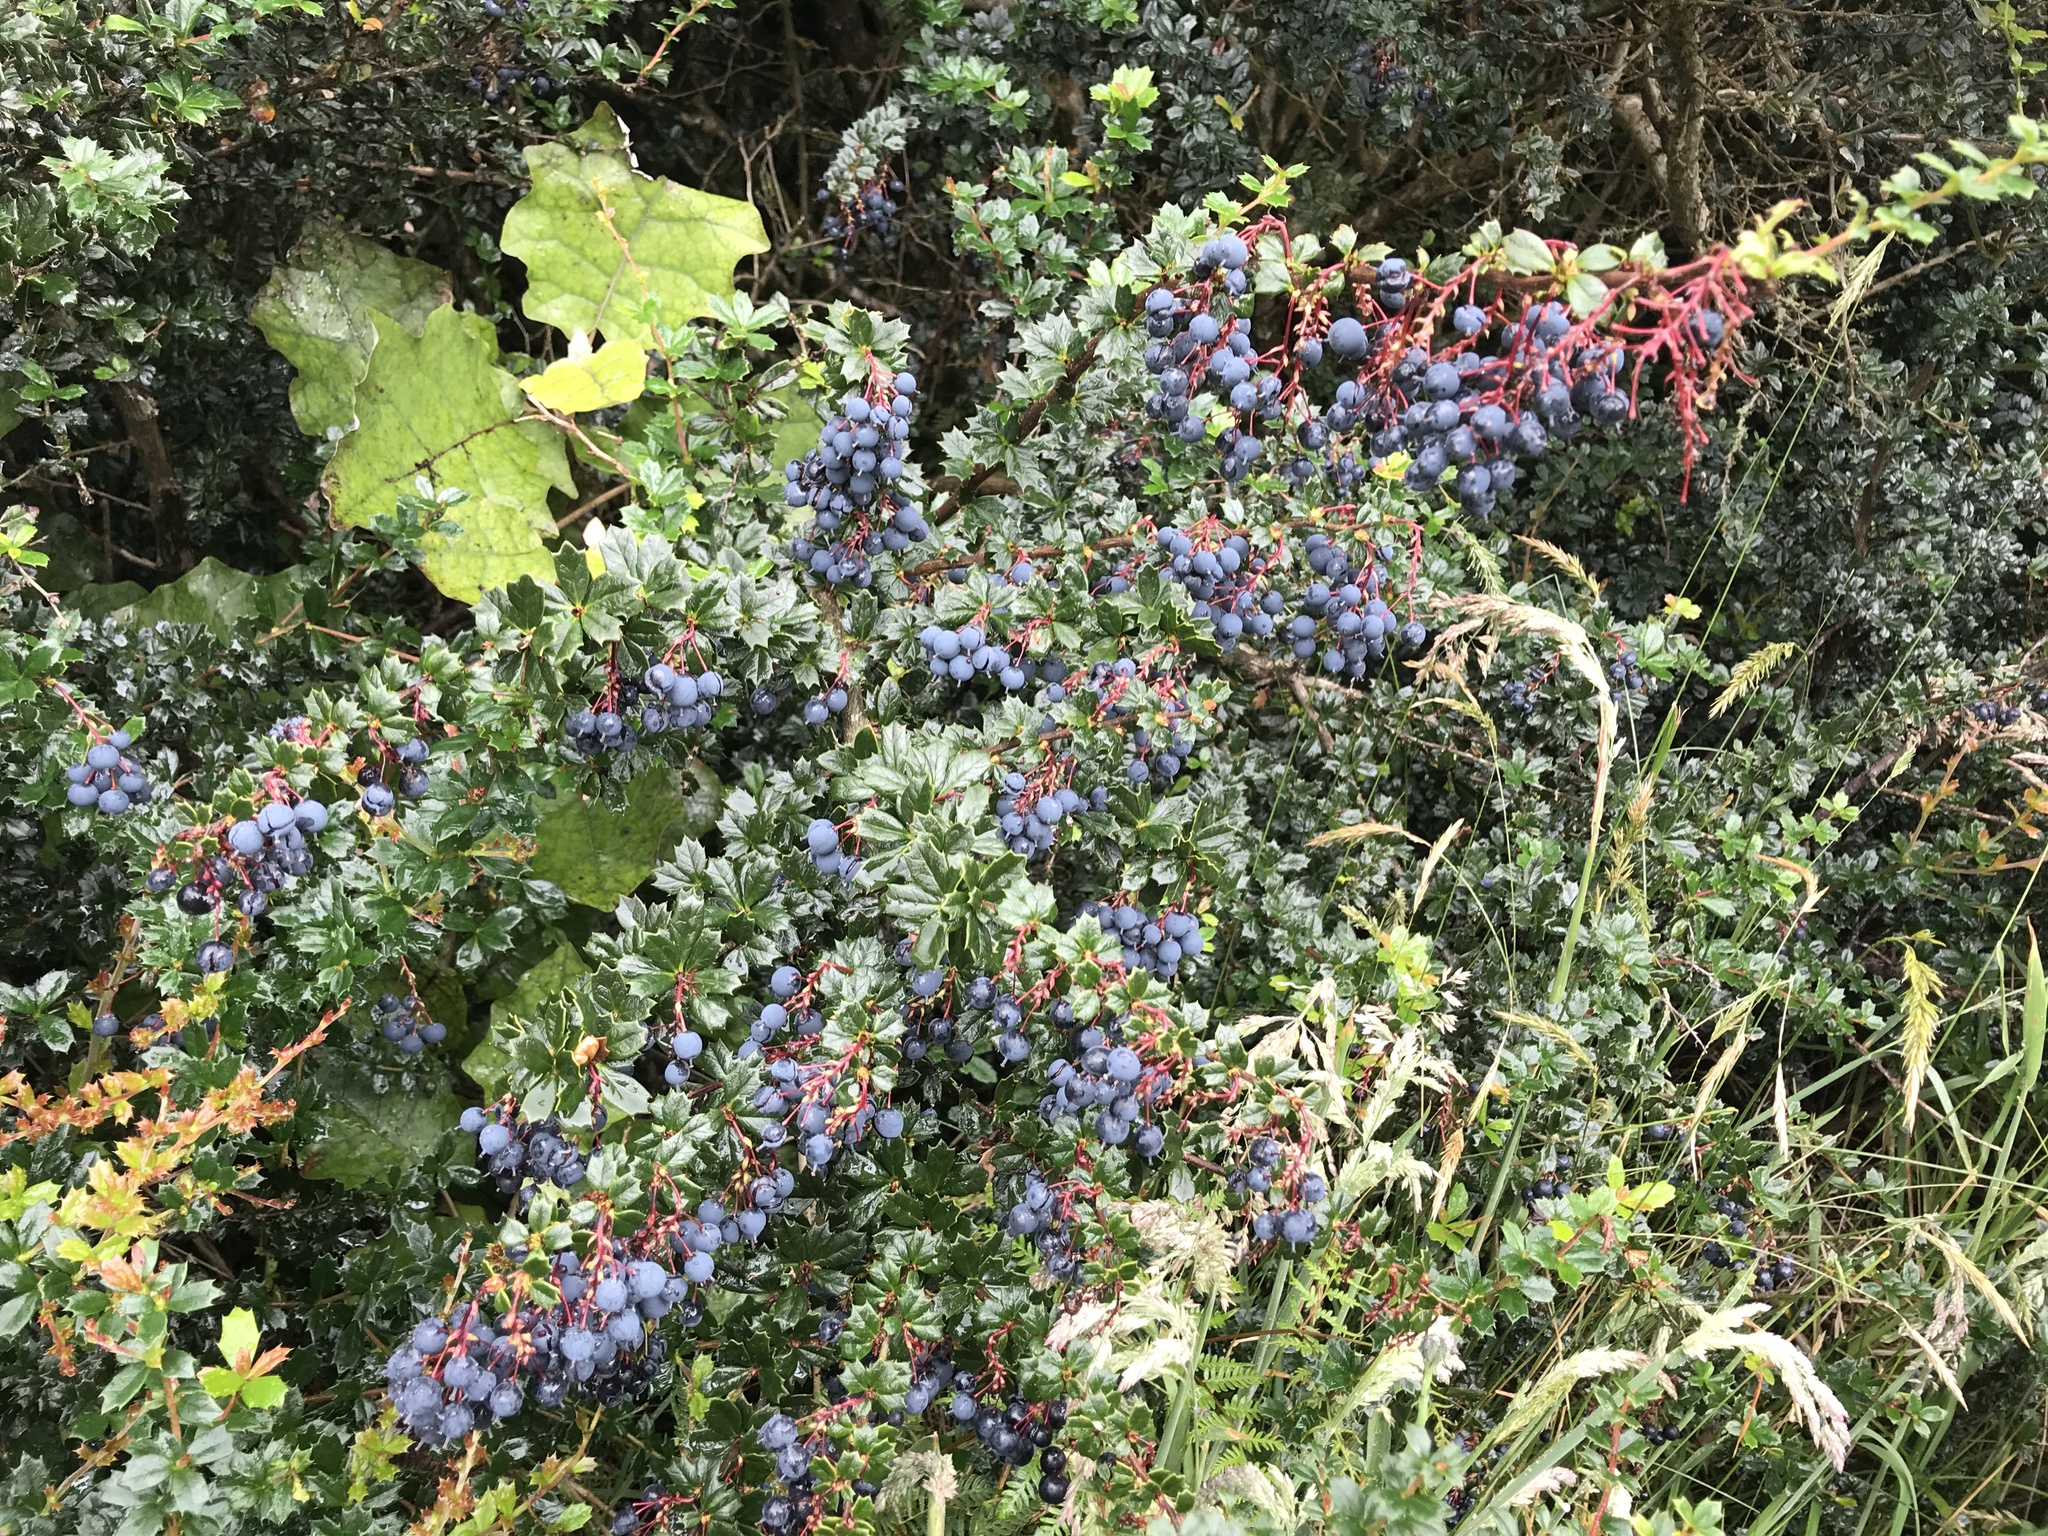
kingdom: Plantae
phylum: Tracheophyta
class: Magnoliopsida
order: Ranunculales
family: Berberidaceae
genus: Berberis
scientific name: Berberis darwinii
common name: Darwin's barberry
